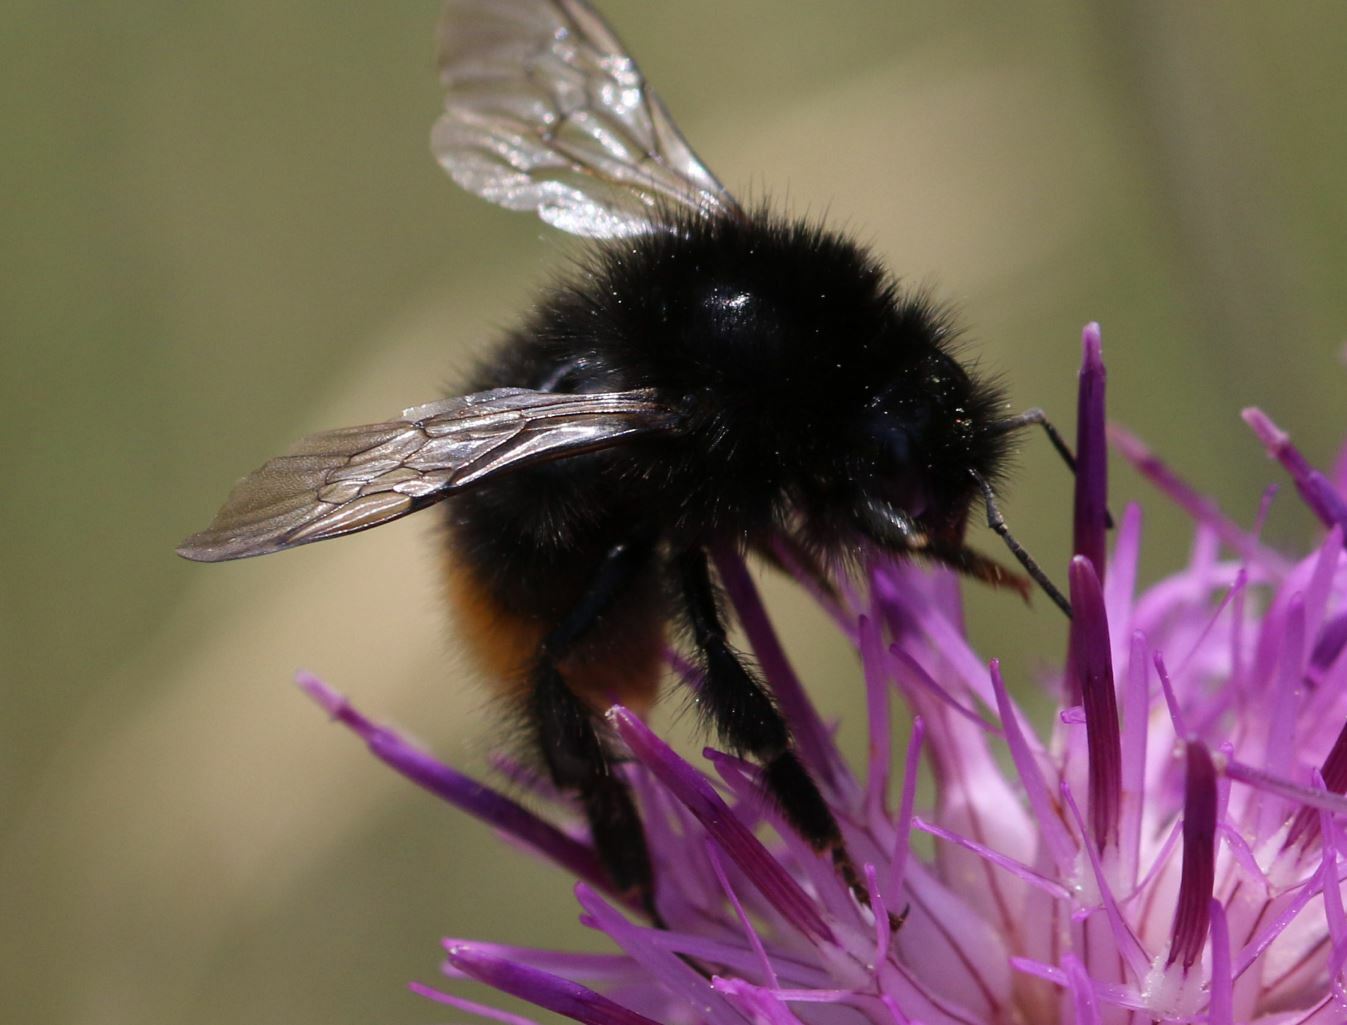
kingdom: Animalia
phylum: Arthropoda
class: Insecta
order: Hymenoptera
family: Apidae
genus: Bombus
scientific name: Bombus wurflenii
